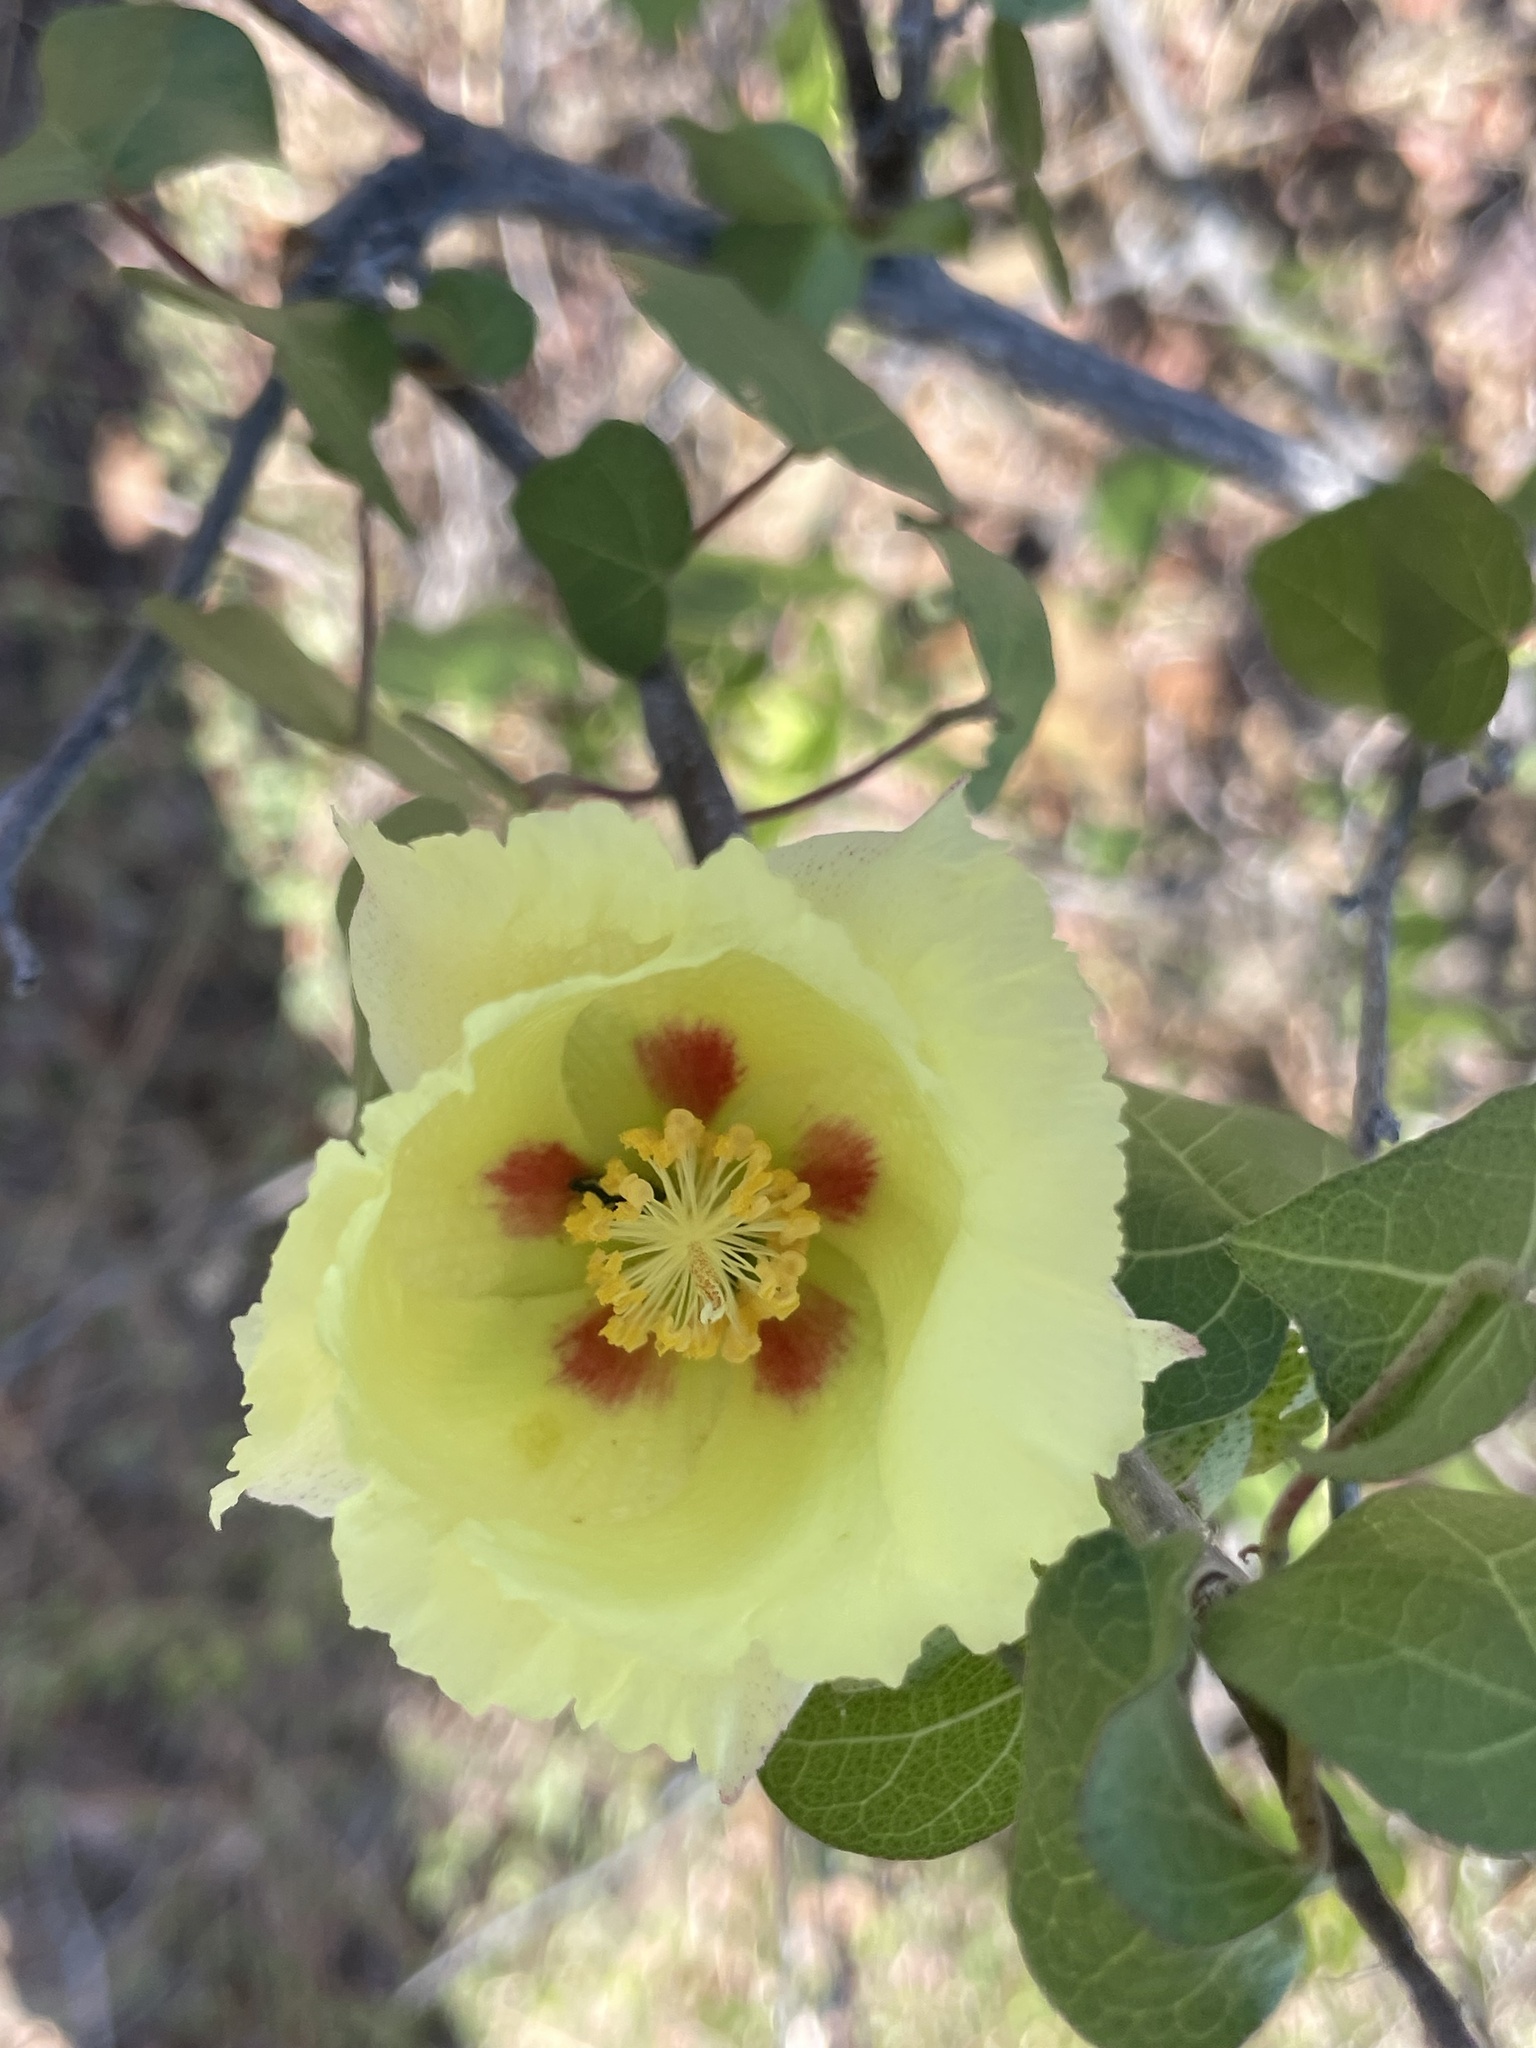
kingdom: Plantae
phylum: Tracheophyta
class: Magnoliopsida
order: Malvales
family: Malvaceae
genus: Gossypium
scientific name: Gossypium harknessii
